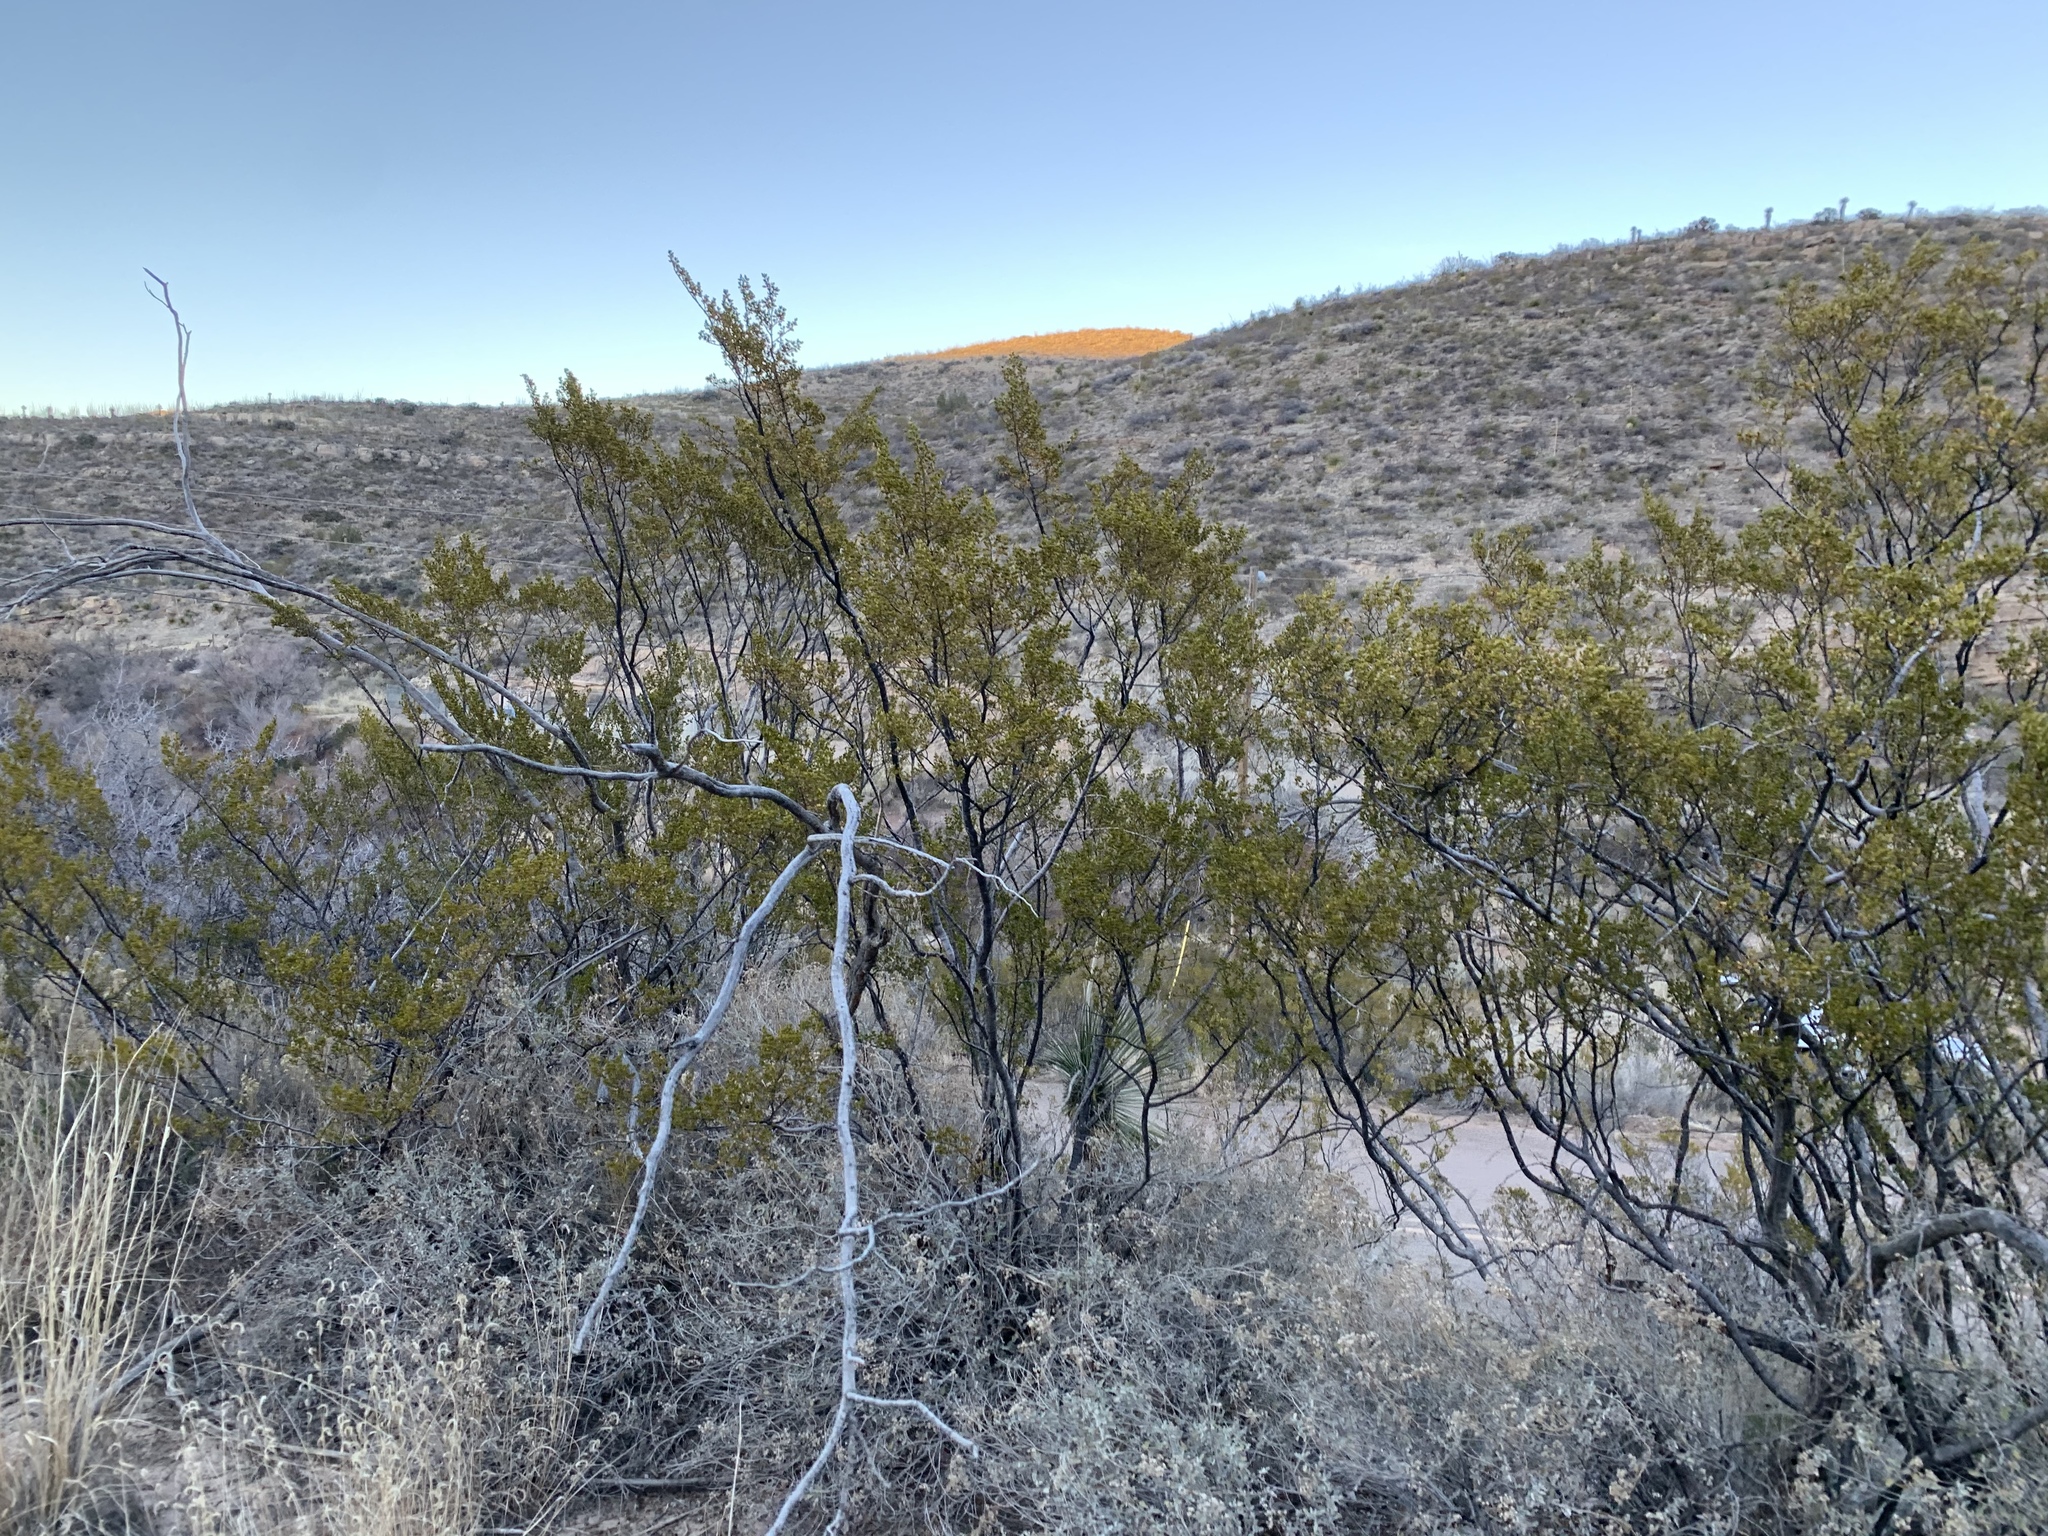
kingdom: Plantae
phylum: Tracheophyta
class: Magnoliopsida
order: Zygophyllales
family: Zygophyllaceae
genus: Larrea
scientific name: Larrea tridentata
